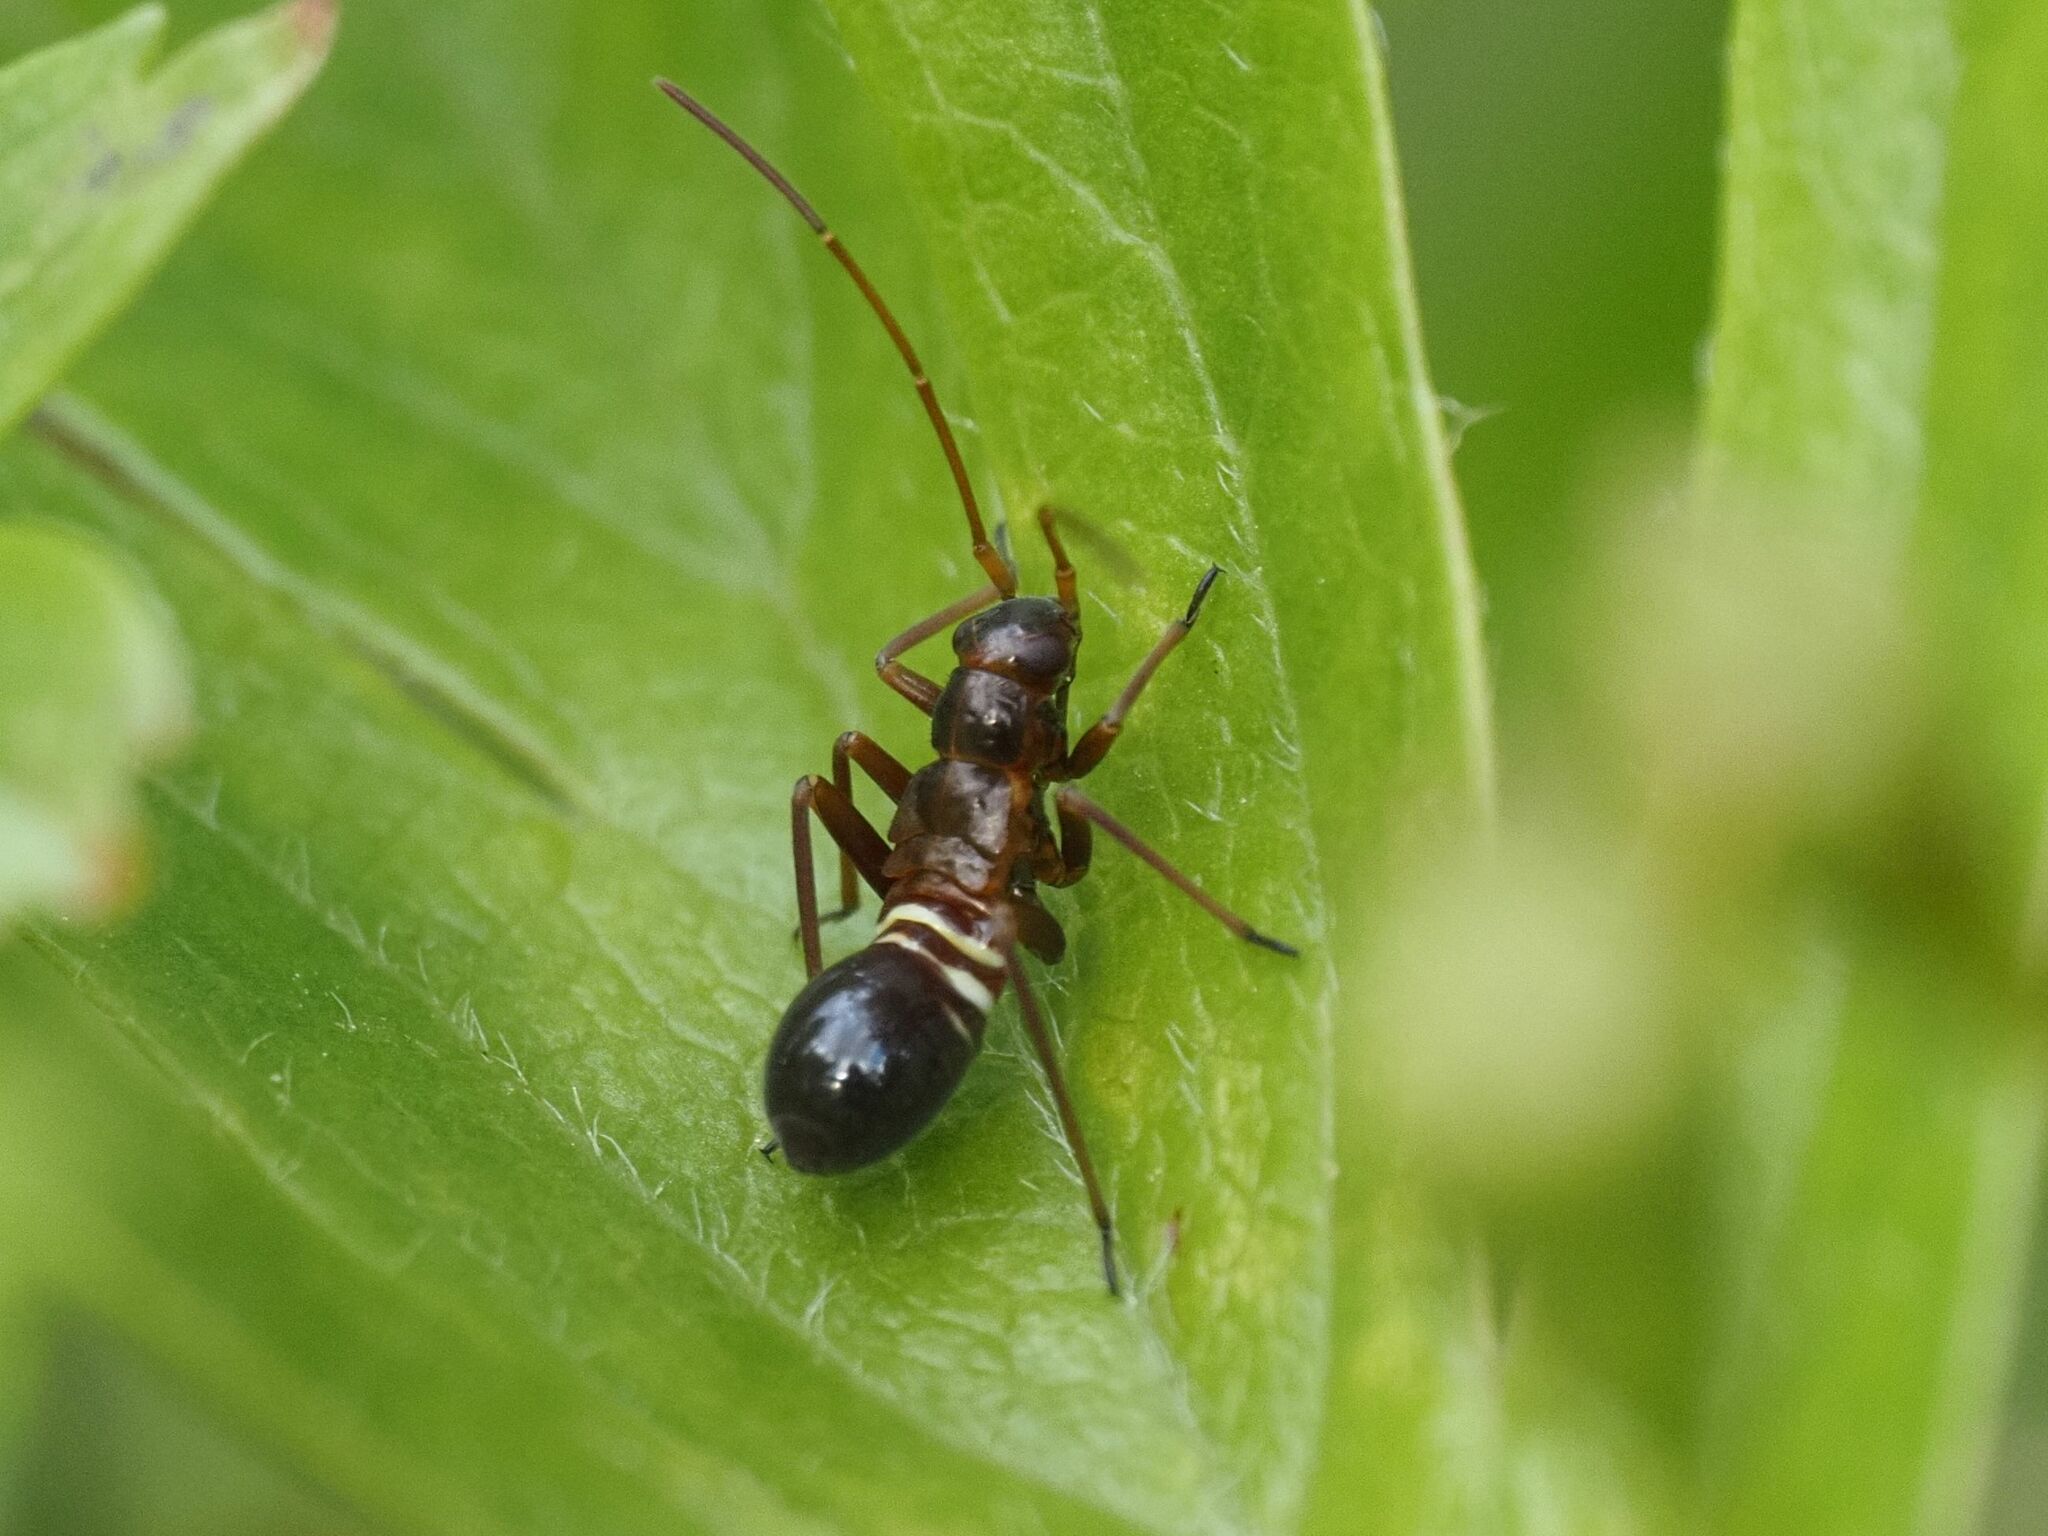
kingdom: Animalia
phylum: Arthropoda
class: Insecta
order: Hemiptera
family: Miridae
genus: Miris
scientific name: Miris striatus
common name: Fine streaked bugkin
